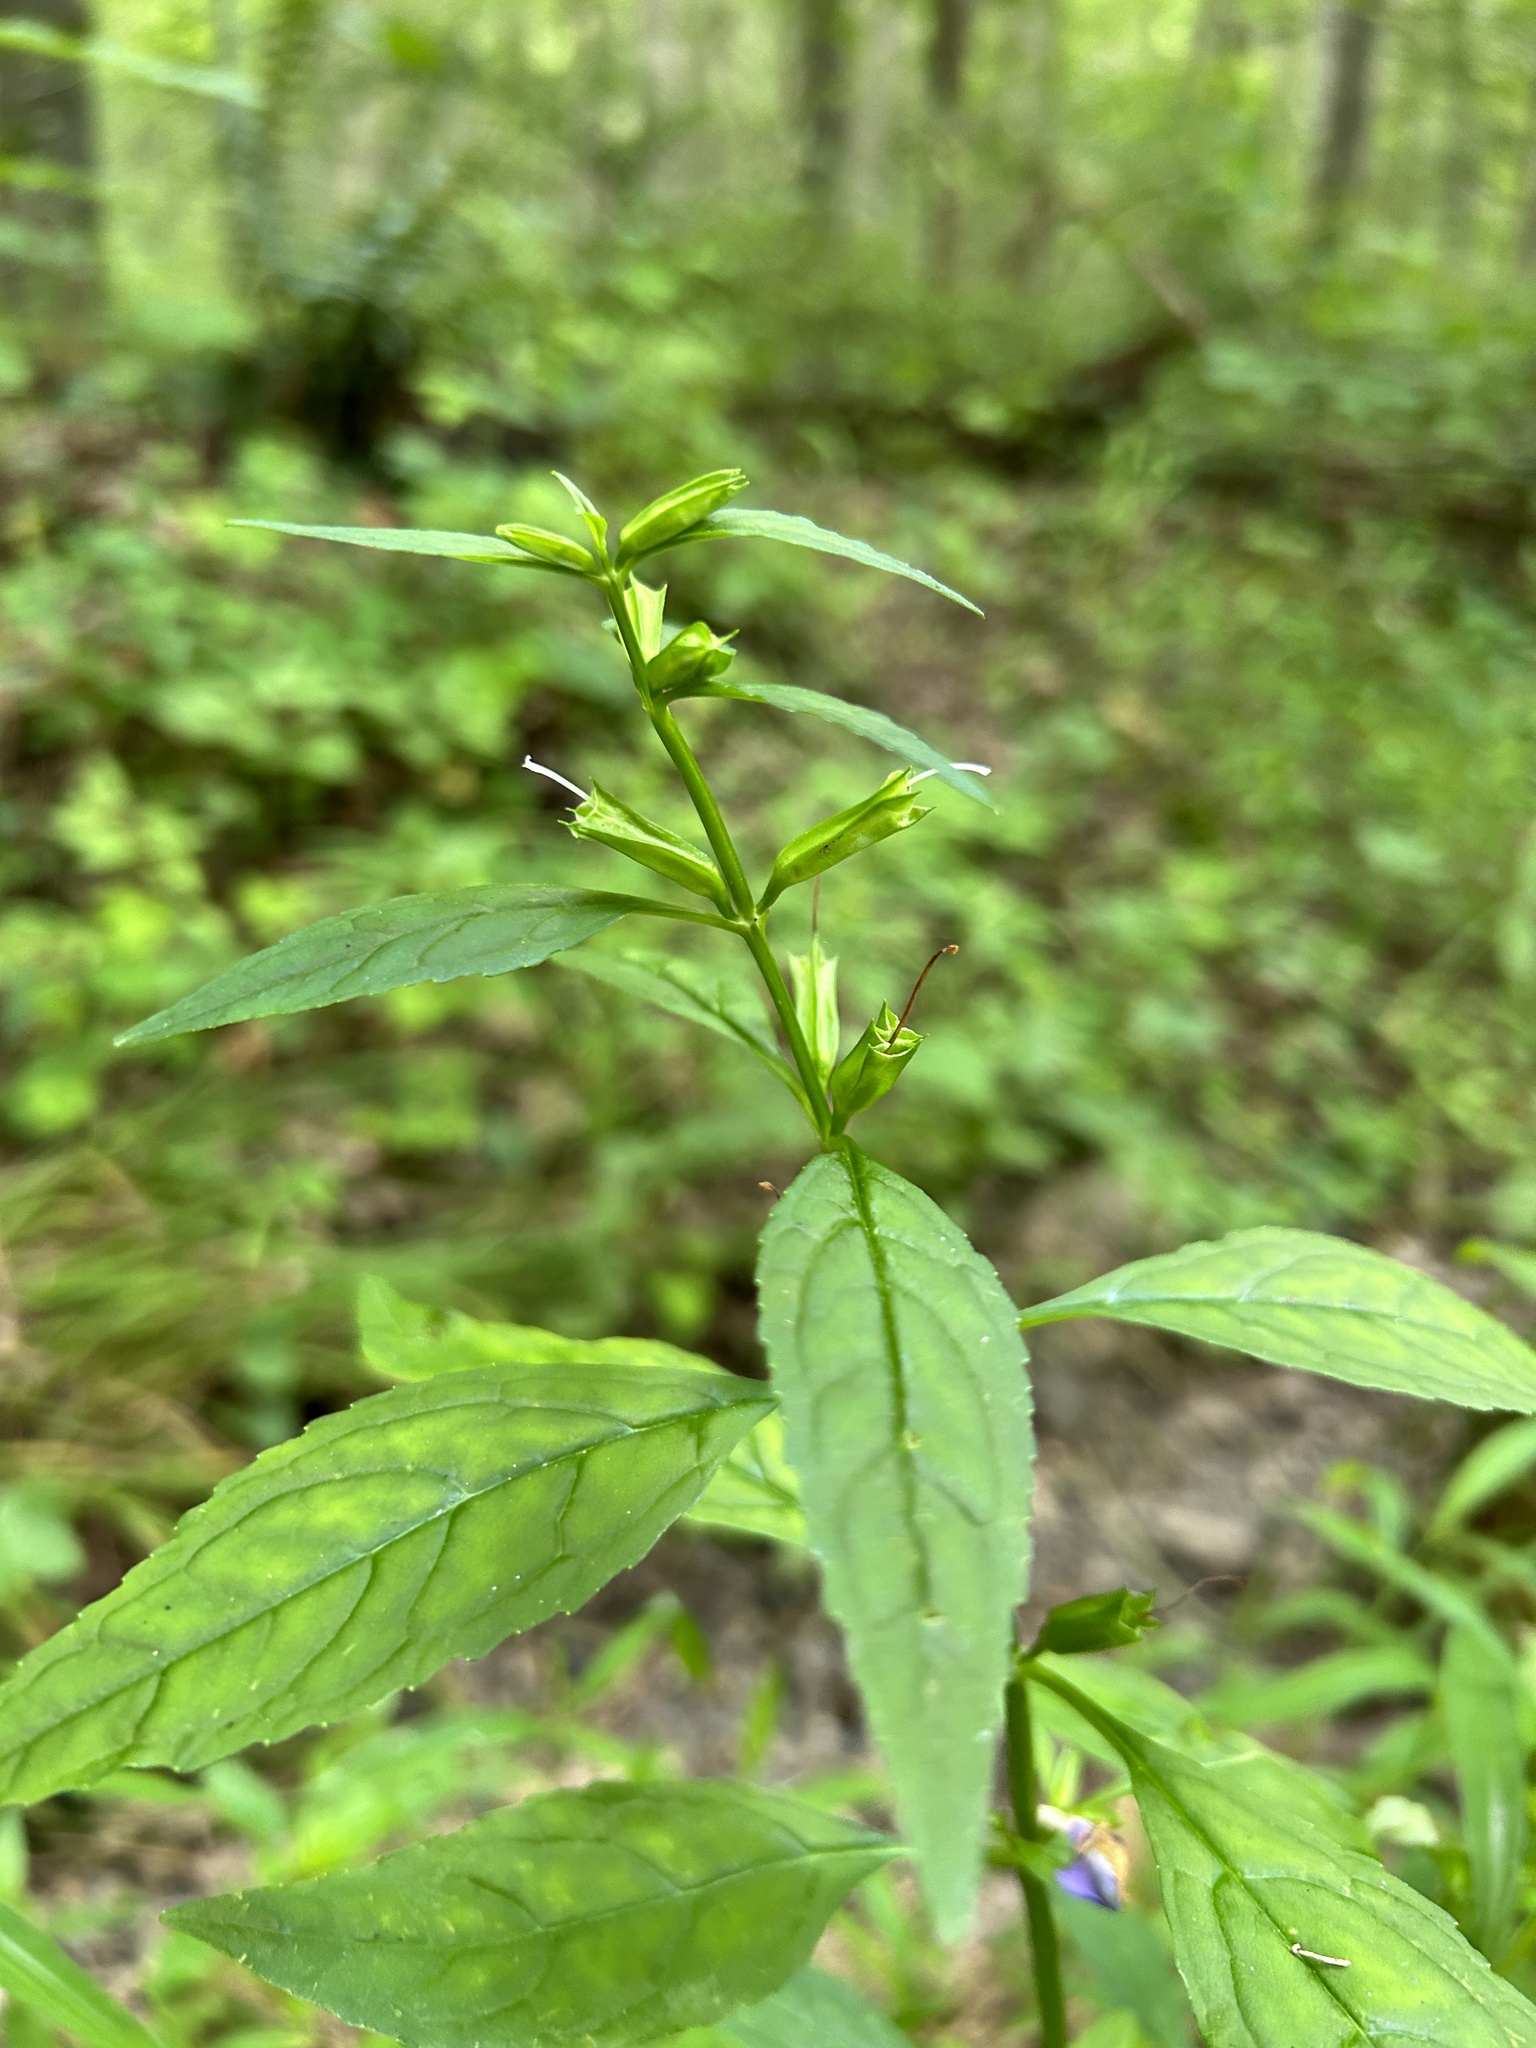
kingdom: Plantae
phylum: Tracheophyta
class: Magnoliopsida
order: Lamiales
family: Phrymaceae
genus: Mimulus
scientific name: Mimulus alatus
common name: Sharp-wing monkey-flower
